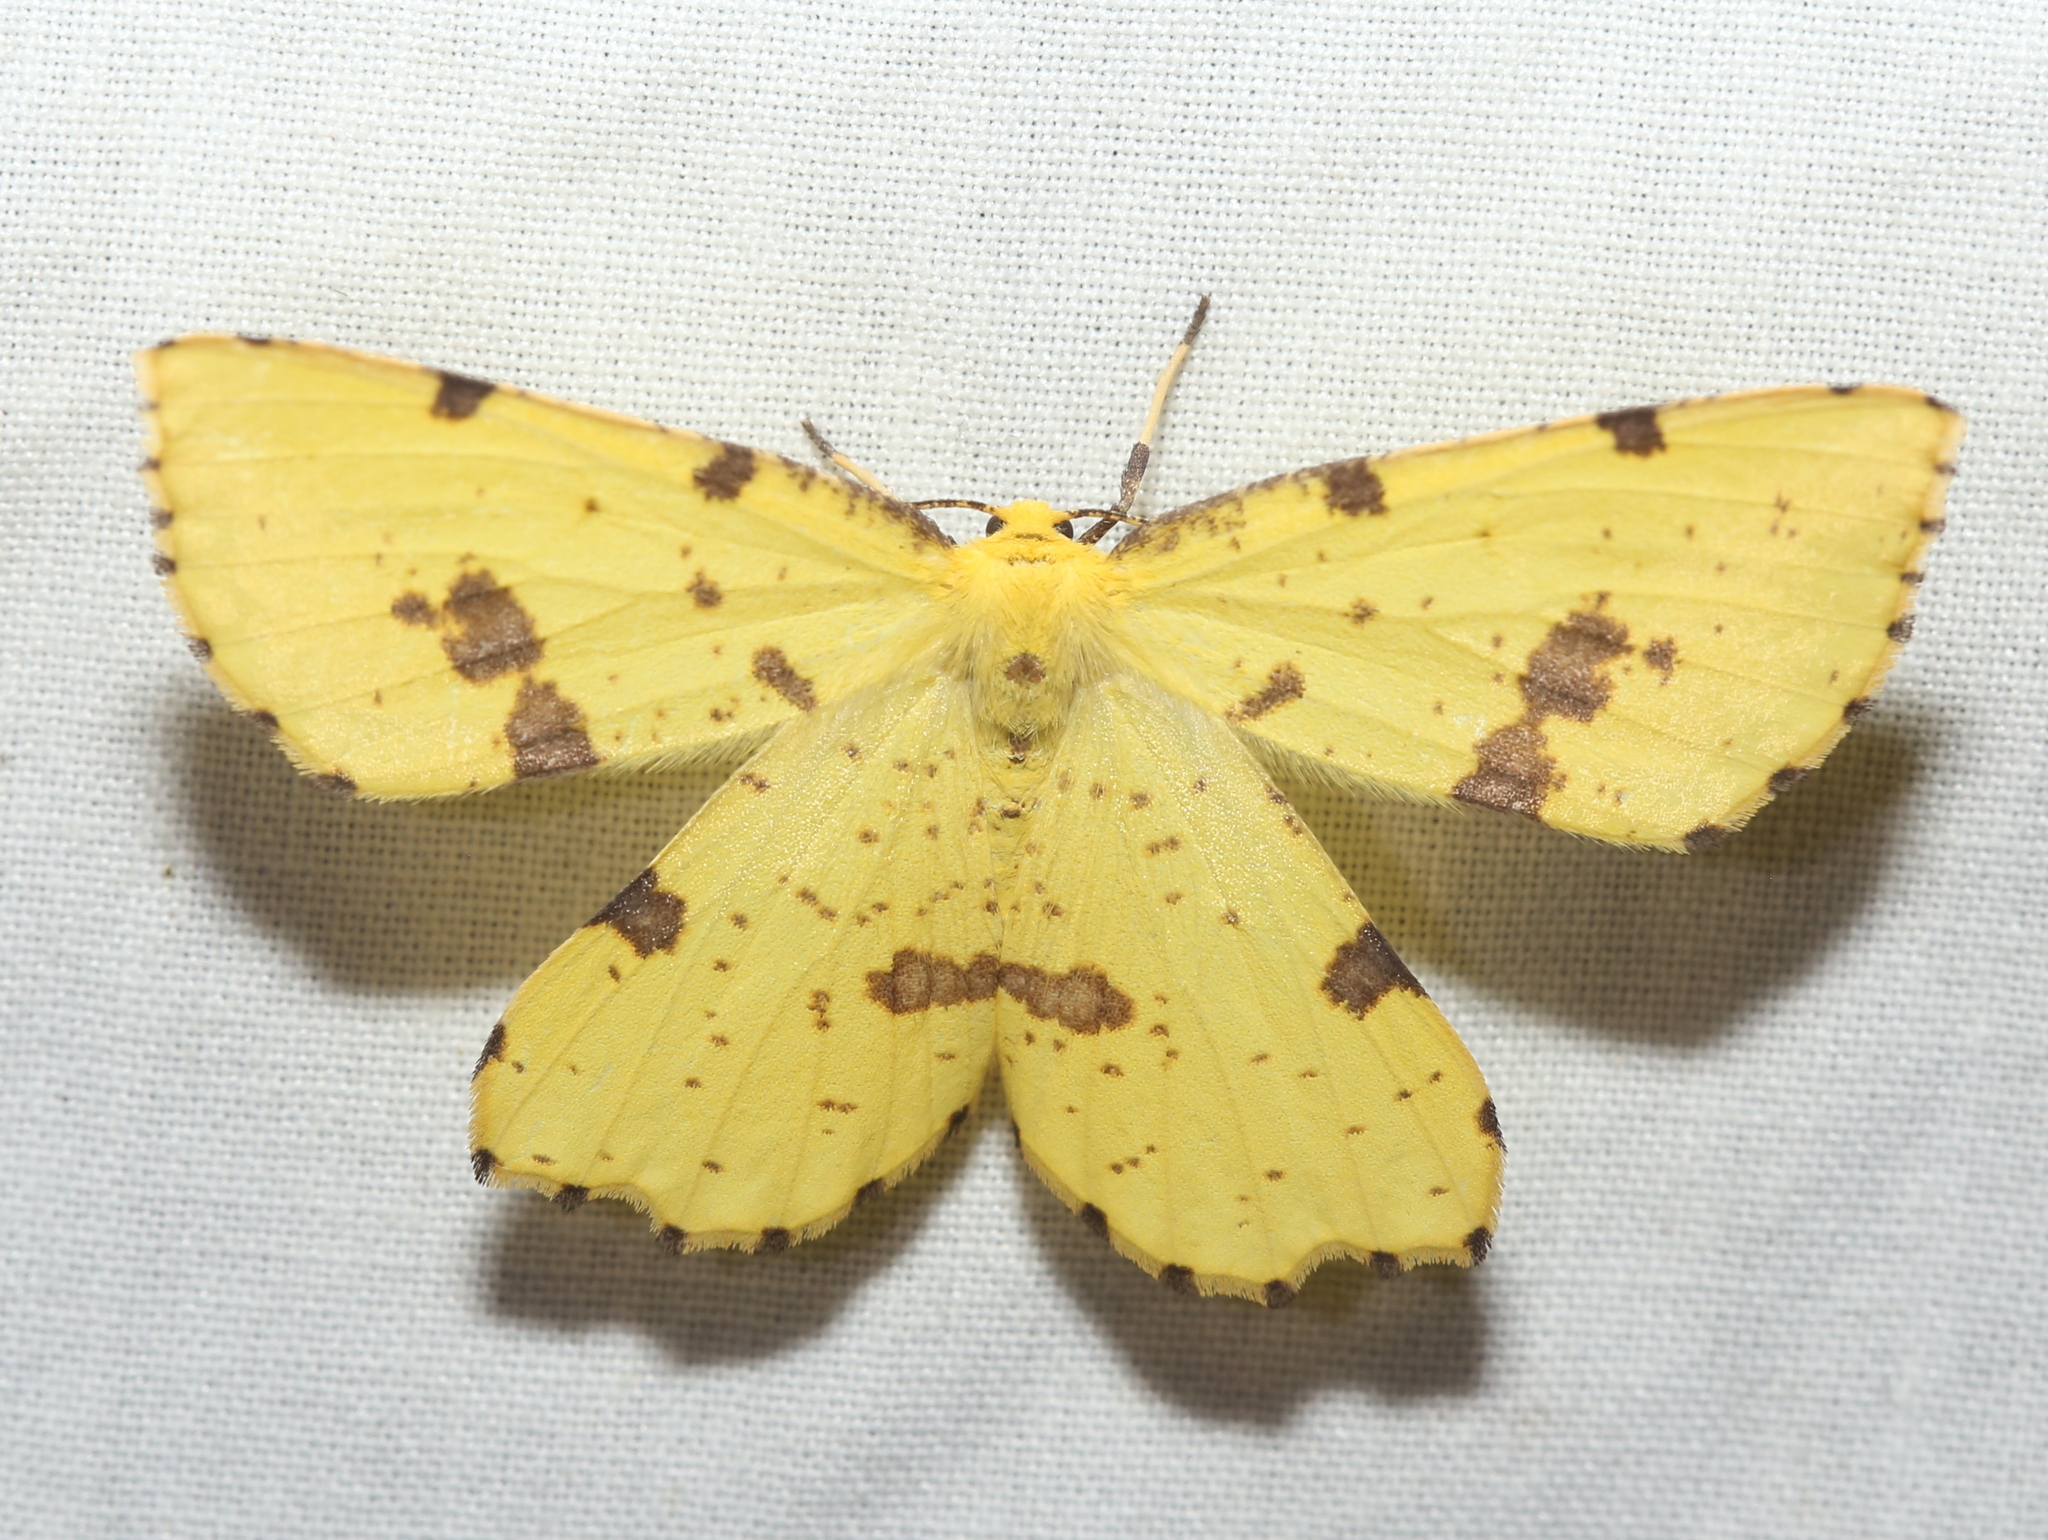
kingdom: Animalia
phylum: Arthropoda
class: Insecta
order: Lepidoptera
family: Geometridae
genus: Xanthotype
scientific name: Xanthotype
